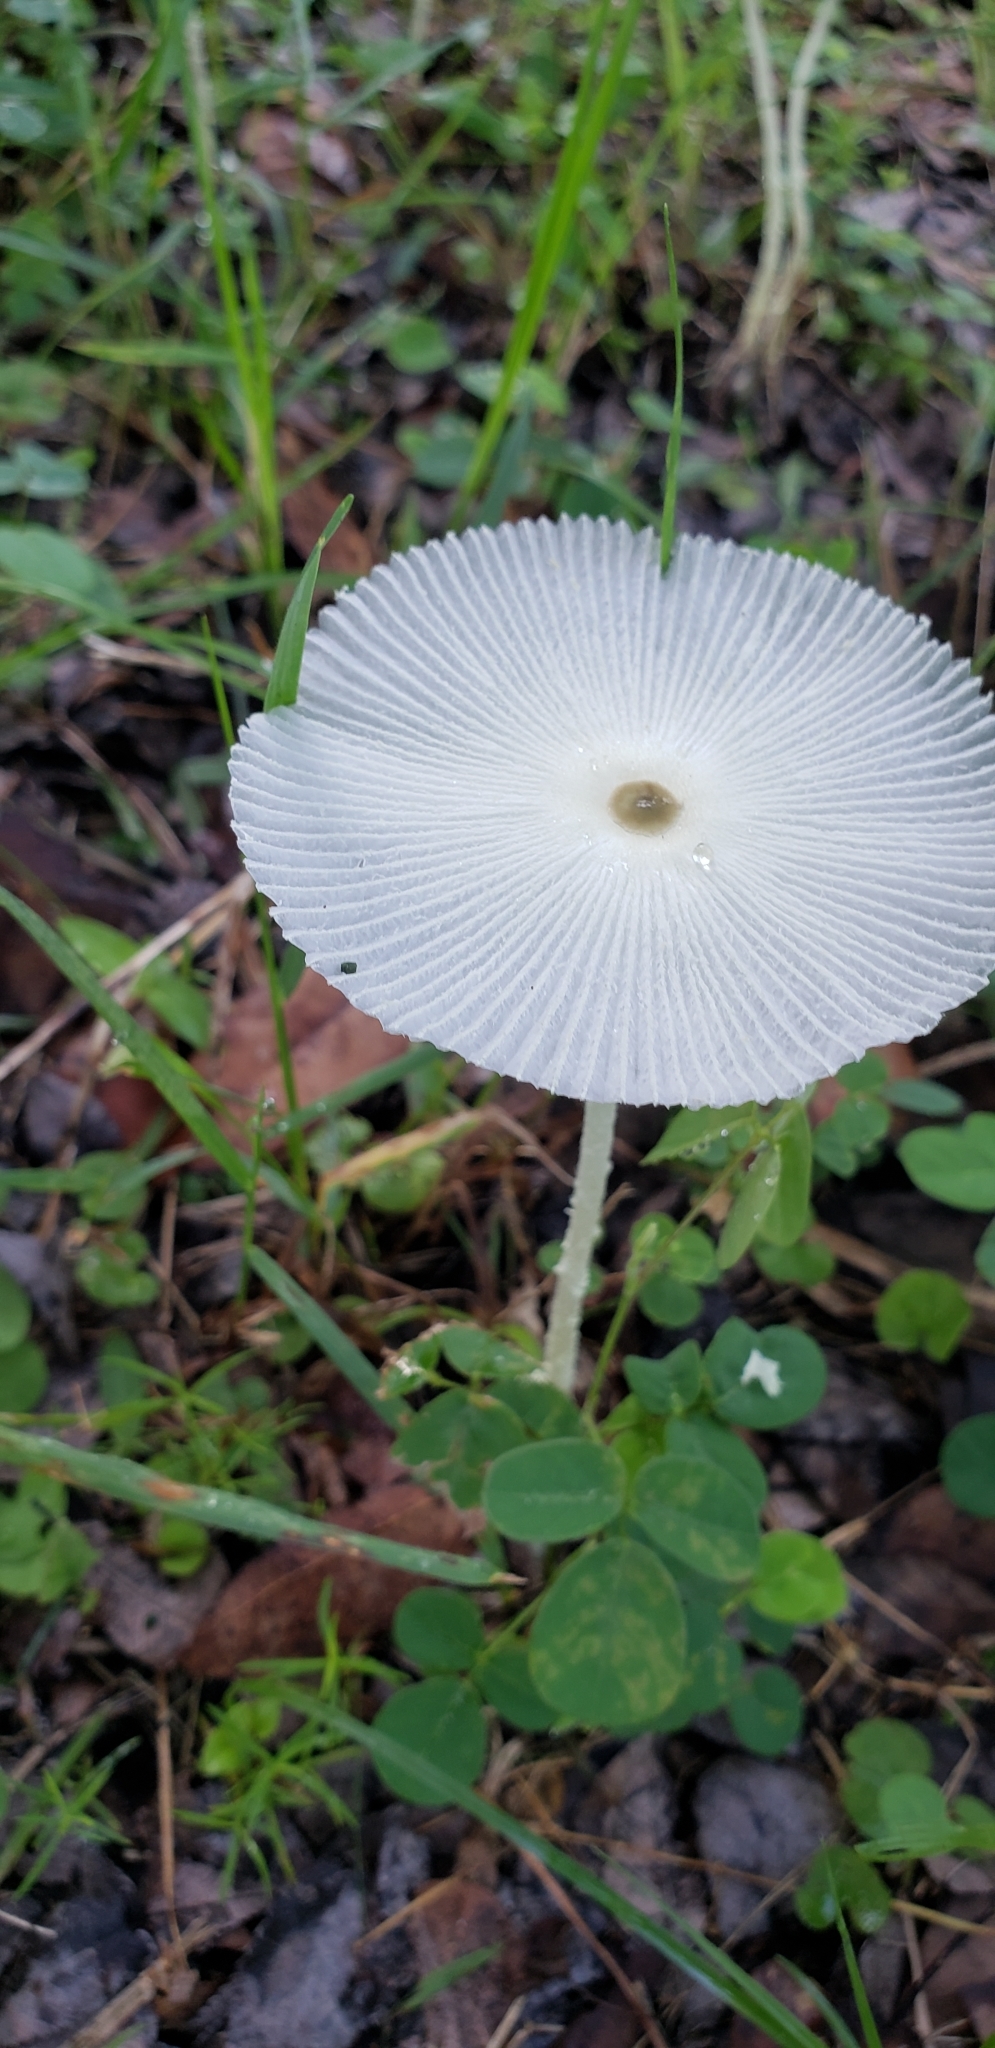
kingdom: Fungi
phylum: Basidiomycota
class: Agaricomycetes
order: Agaricales
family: Agaricaceae
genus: Leucocoprinus
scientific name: Leucocoprinus fragilissimus
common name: Fragile dapperling
